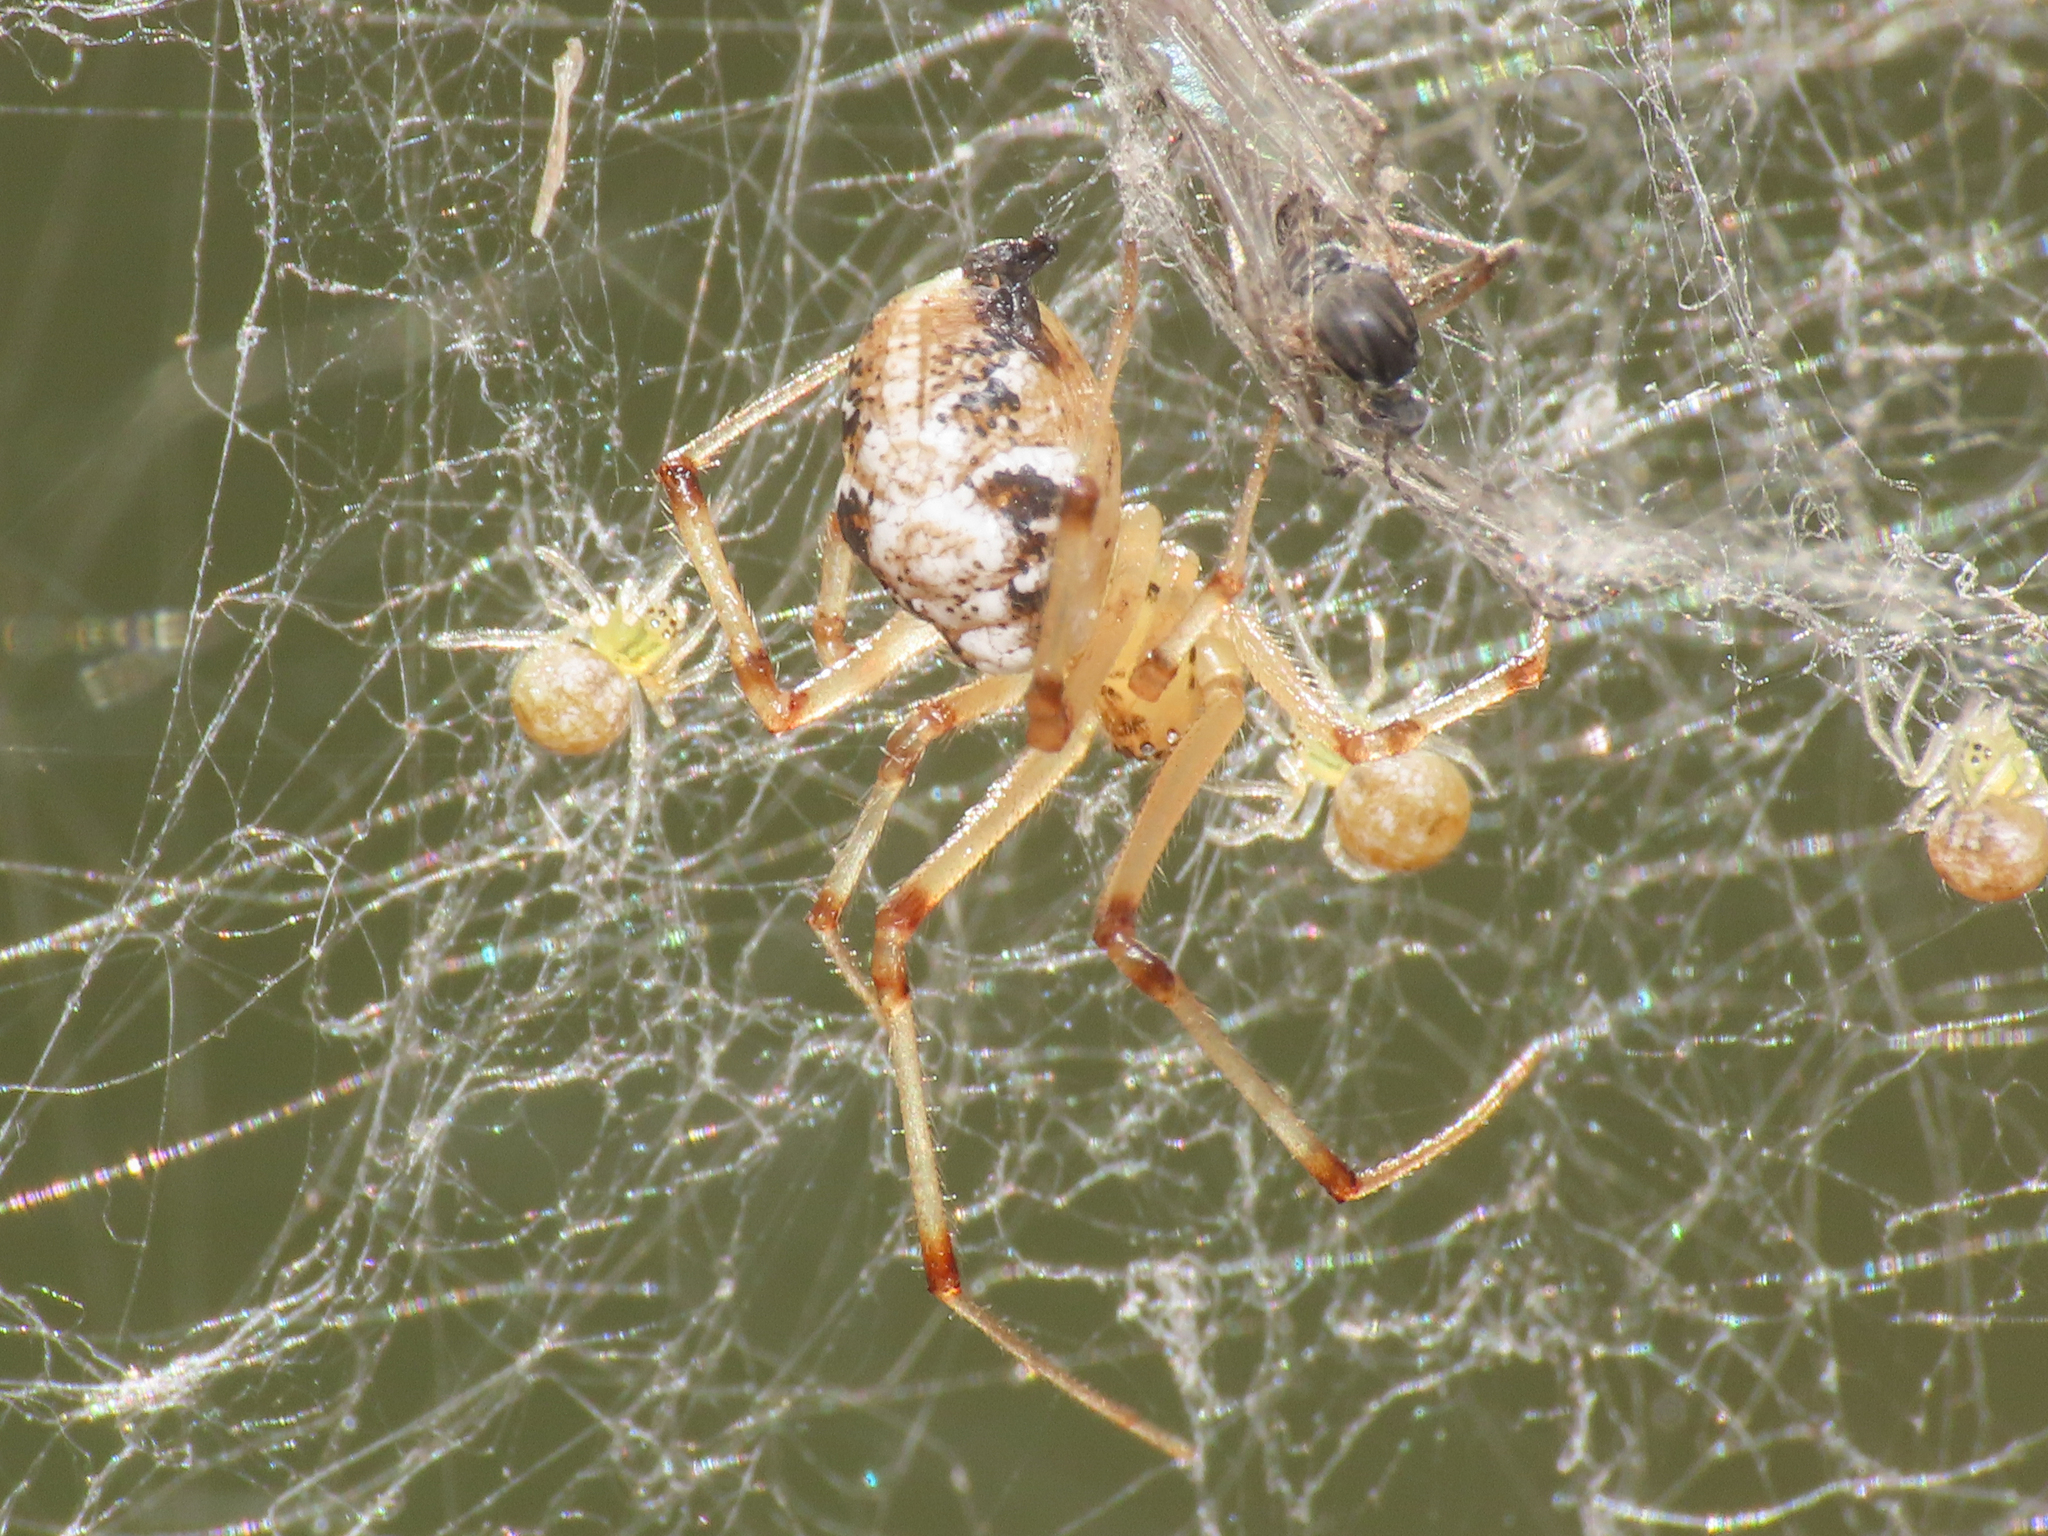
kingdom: Animalia
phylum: Arthropoda
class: Arachnida
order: Araneae
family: Theridiidae
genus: Phylloneta
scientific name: Phylloneta impressa
